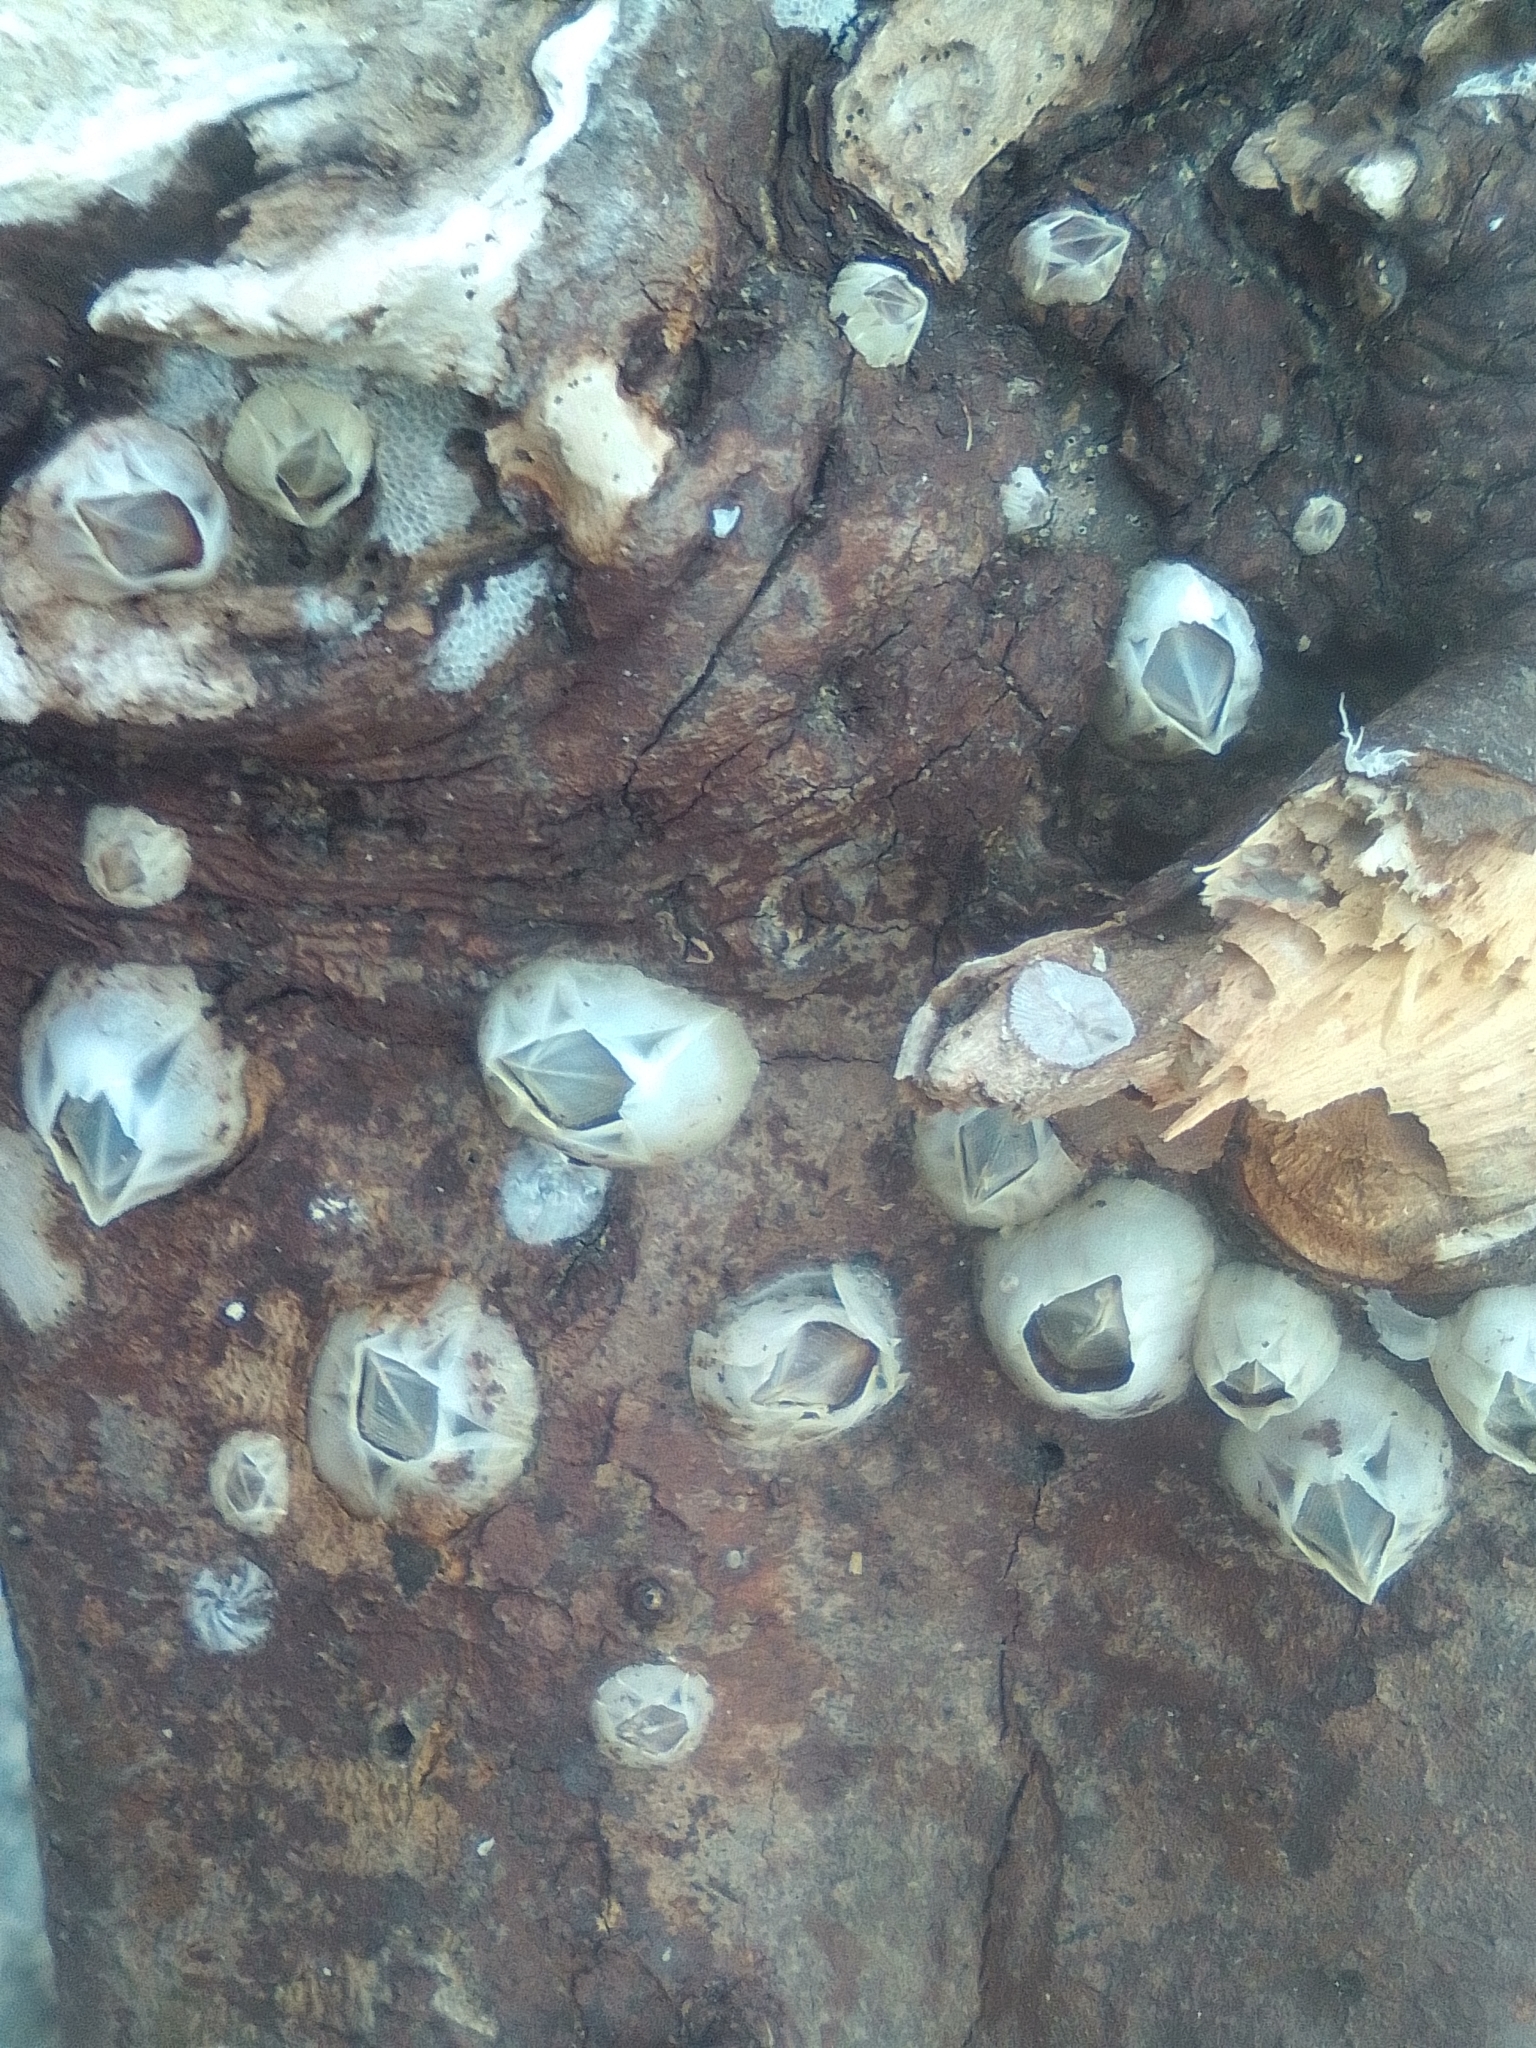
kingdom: Animalia
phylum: Arthropoda
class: Maxillopoda
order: Sessilia
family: Balanidae
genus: Amphibalanus
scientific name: Amphibalanus improvisus
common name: Bay barnacle
